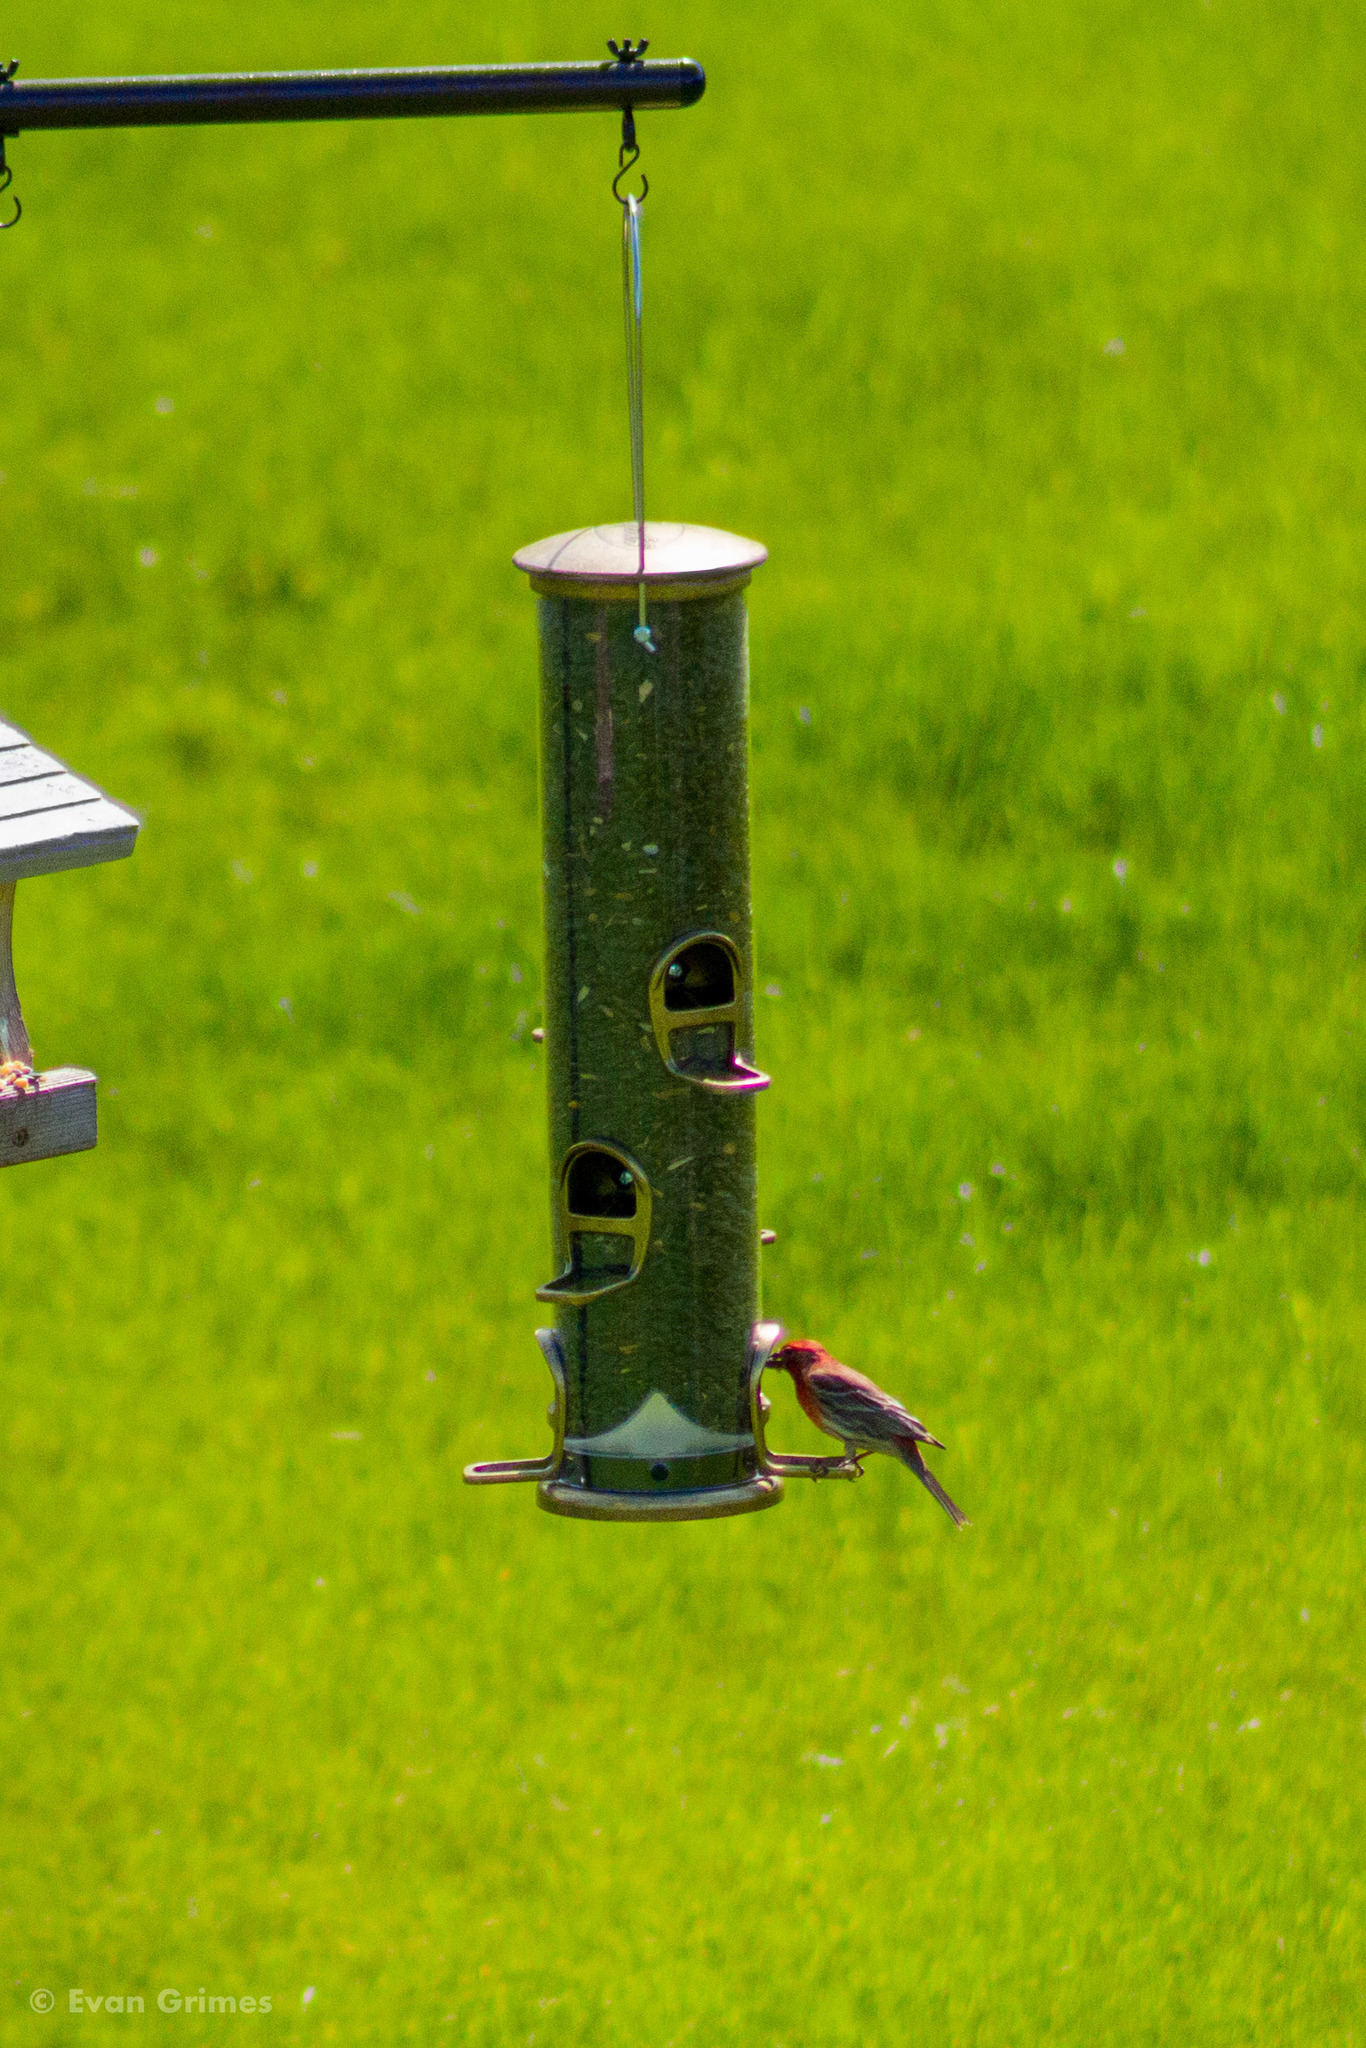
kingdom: Animalia
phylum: Chordata
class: Aves
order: Passeriformes
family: Fringillidae
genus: Haemorhous
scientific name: Haemorhous mexicanus
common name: House finch
